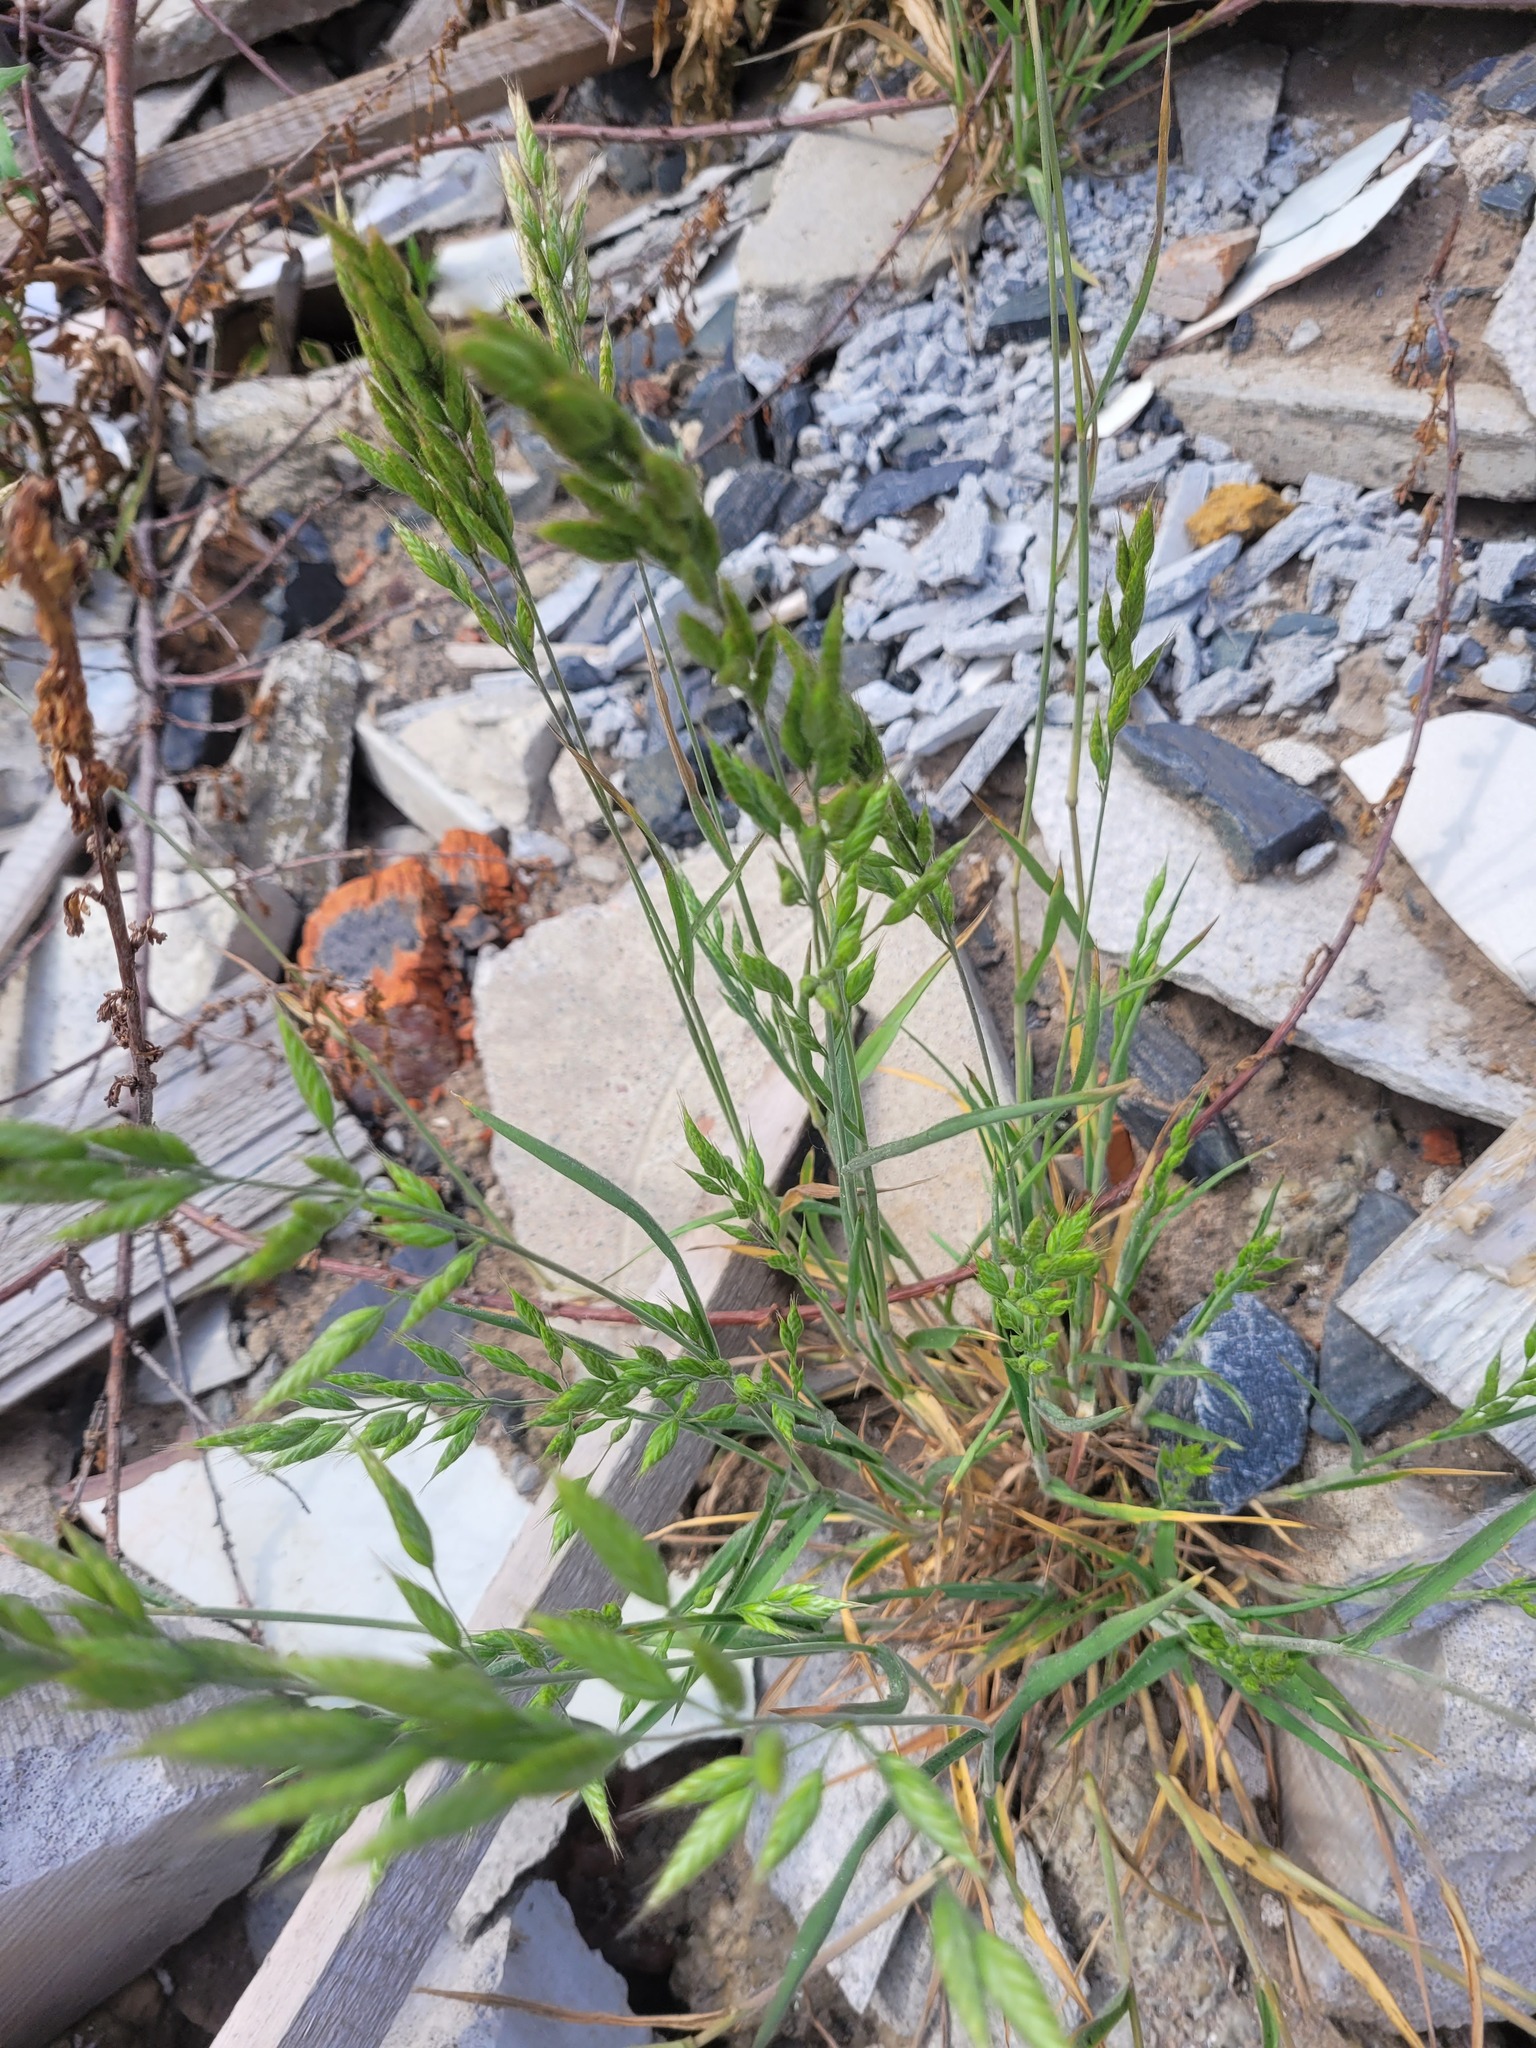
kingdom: Plantae
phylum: Tracheophyta
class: Liliopsida
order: Poales
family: Poaceae
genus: Bromus
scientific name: Bromus hordeaceus
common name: Soft brome
